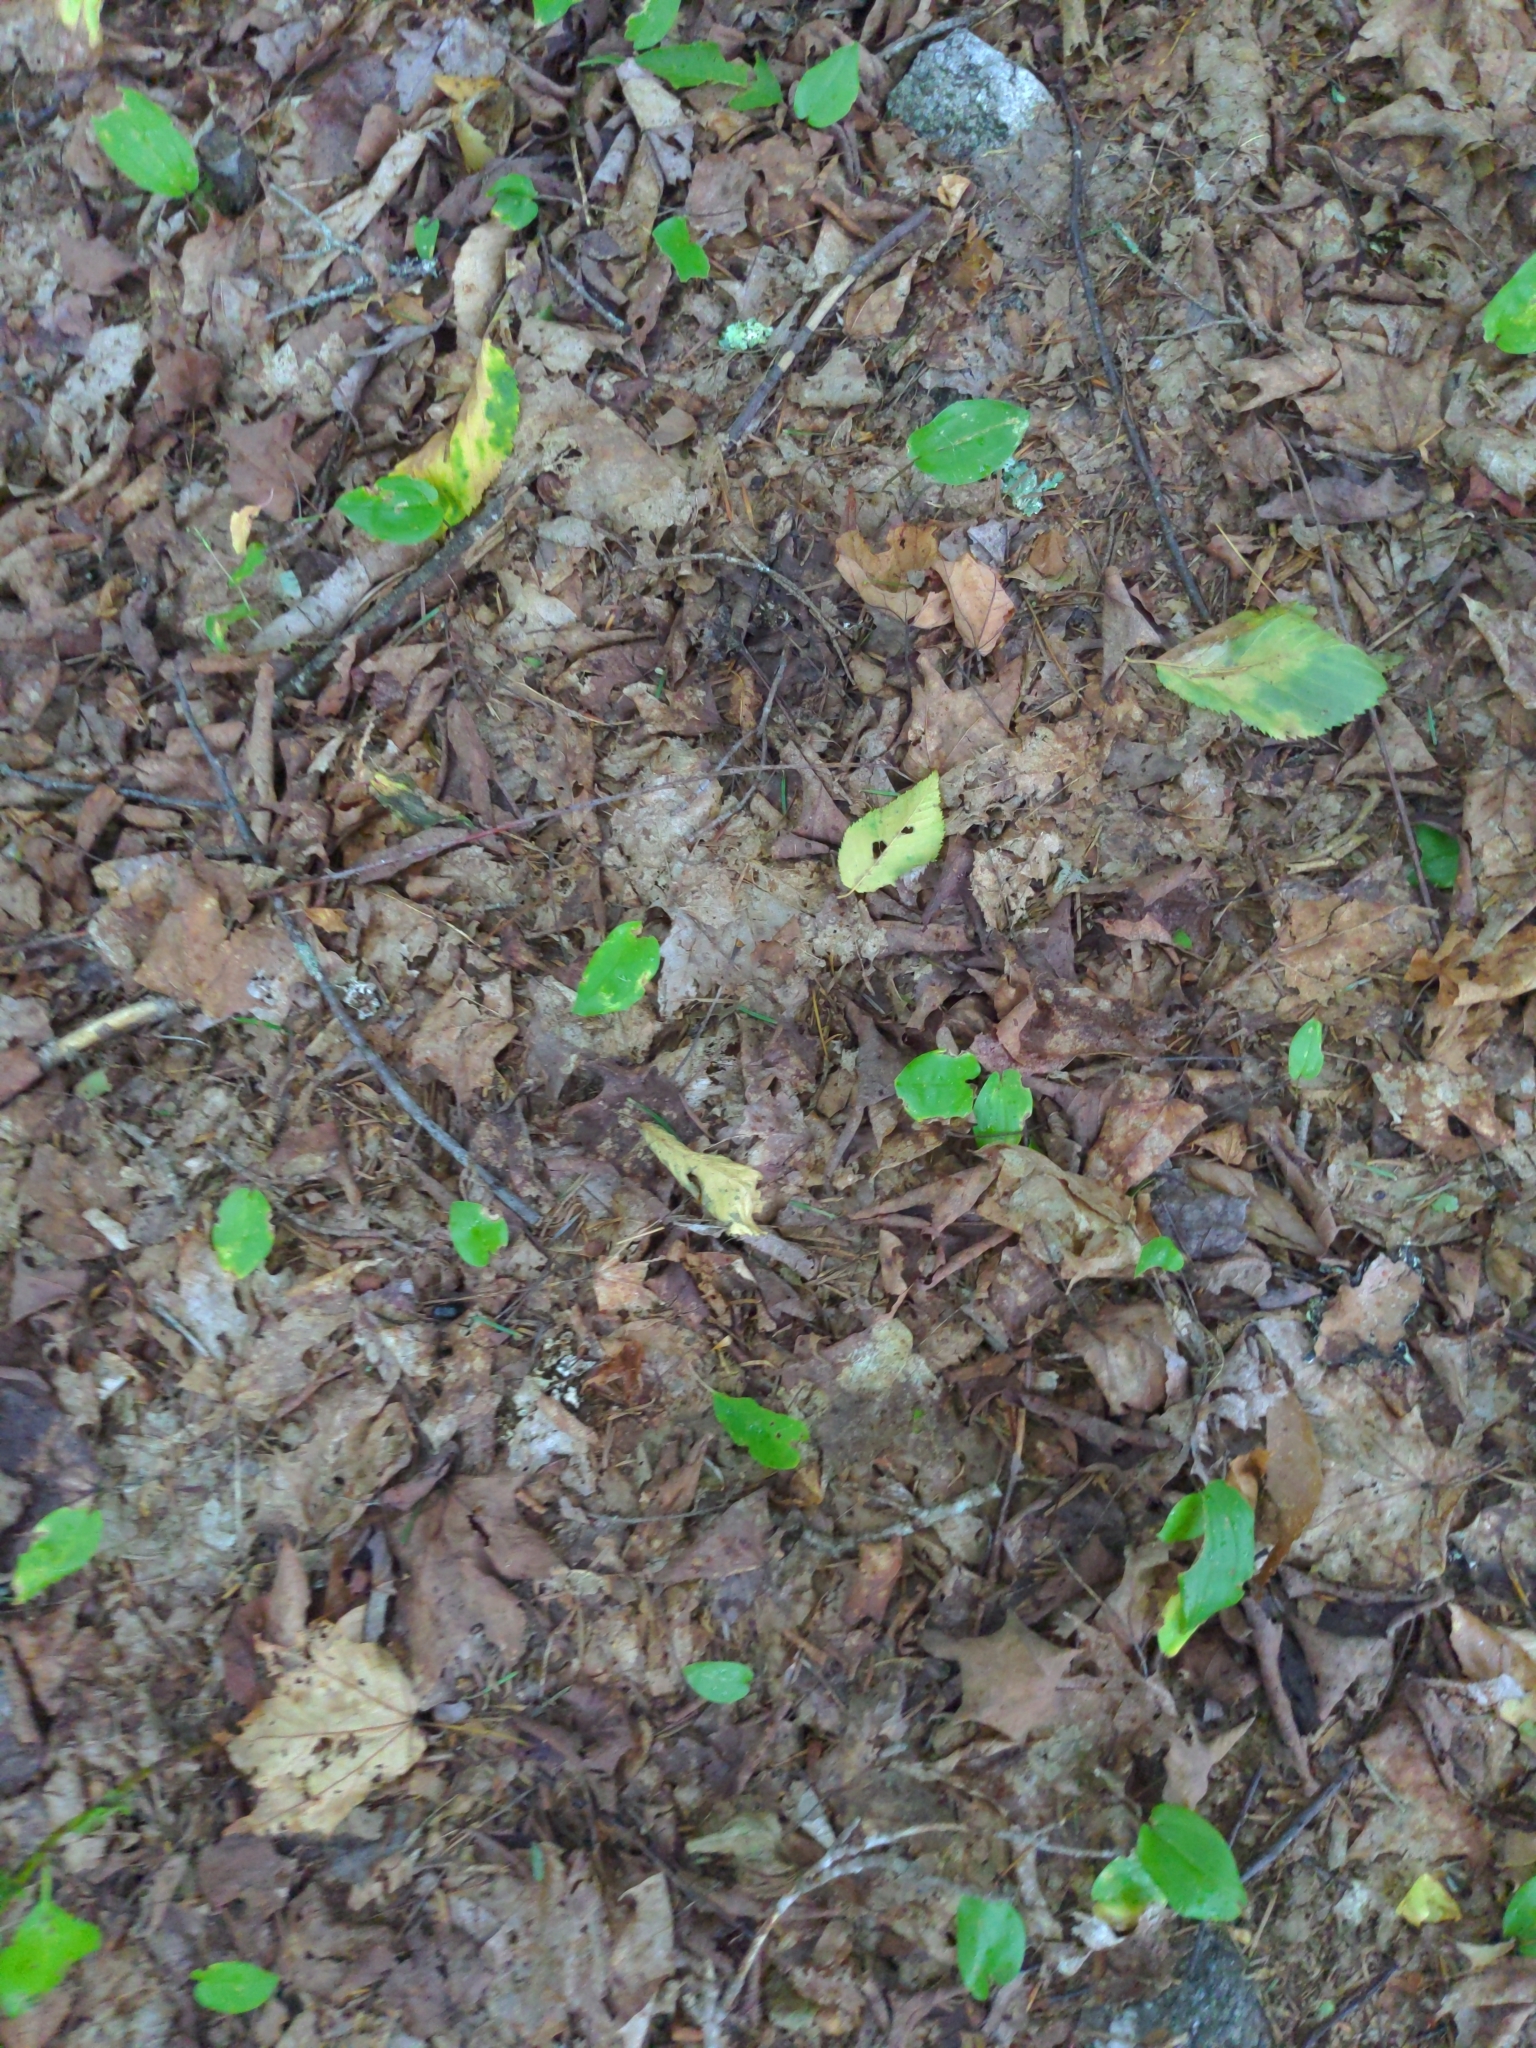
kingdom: Plantae
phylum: Tracheophyta
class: Liliopsida
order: Asparagales
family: Asparagaceae
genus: Maianthemum
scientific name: Maianthemum canadense
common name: False lily-of-the-valley
